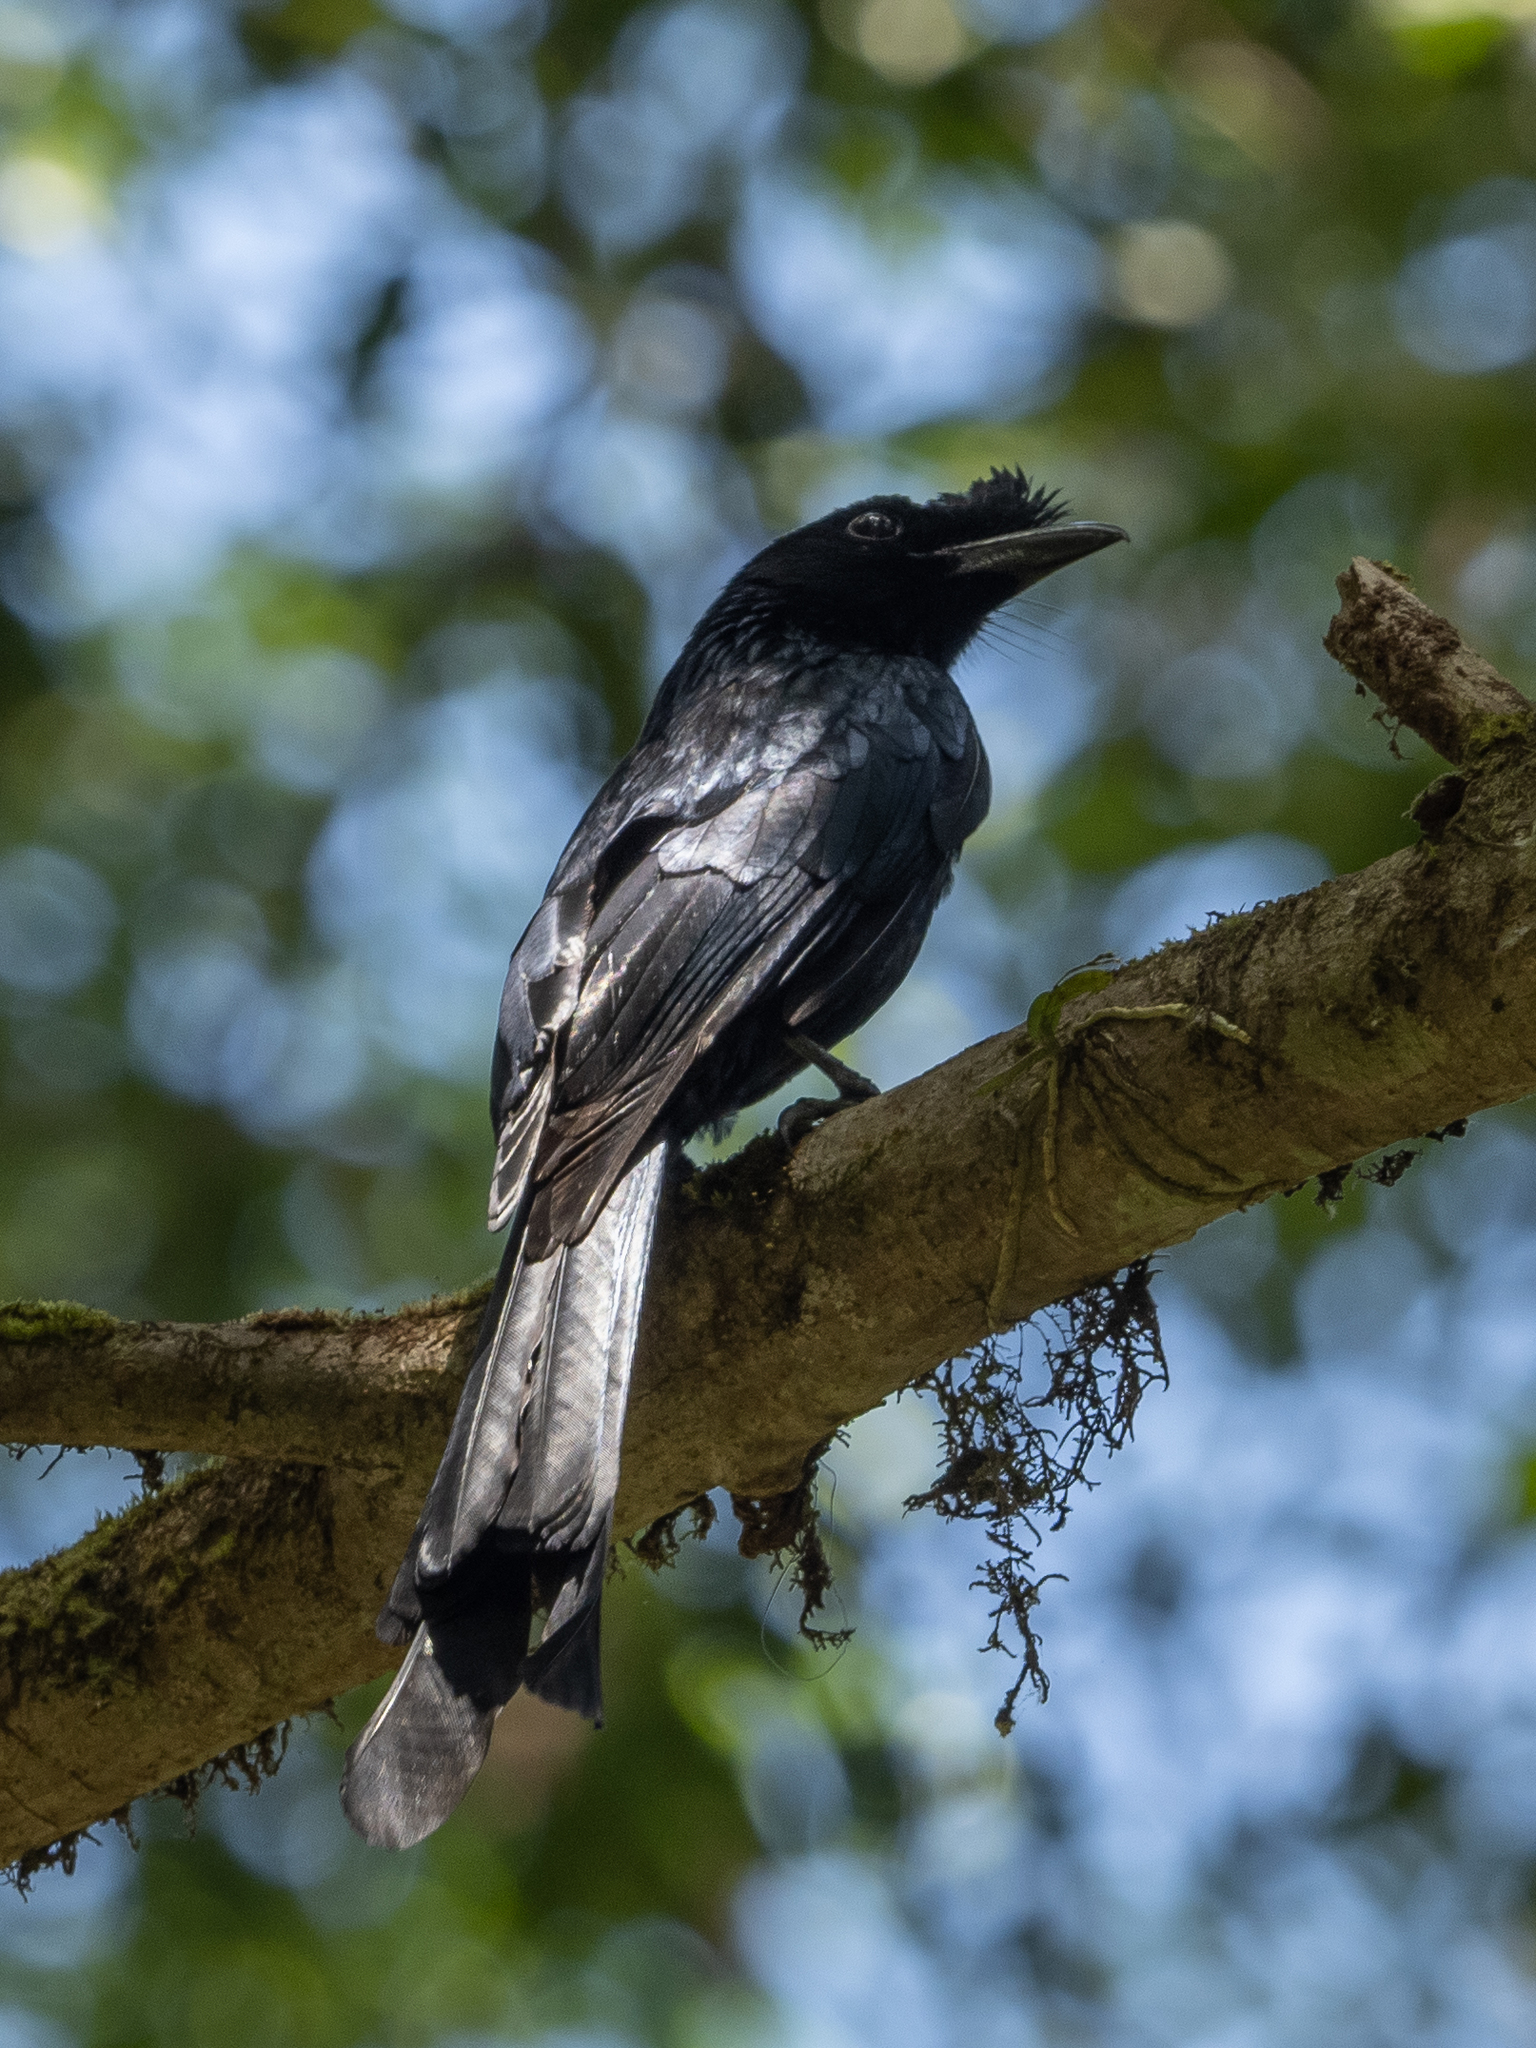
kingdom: Animalia
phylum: Chordata
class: Aves
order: Passeriformes
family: Dicruridae
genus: Dicrurus
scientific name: Dicrurus lophorinus
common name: Sri lanka drongo
